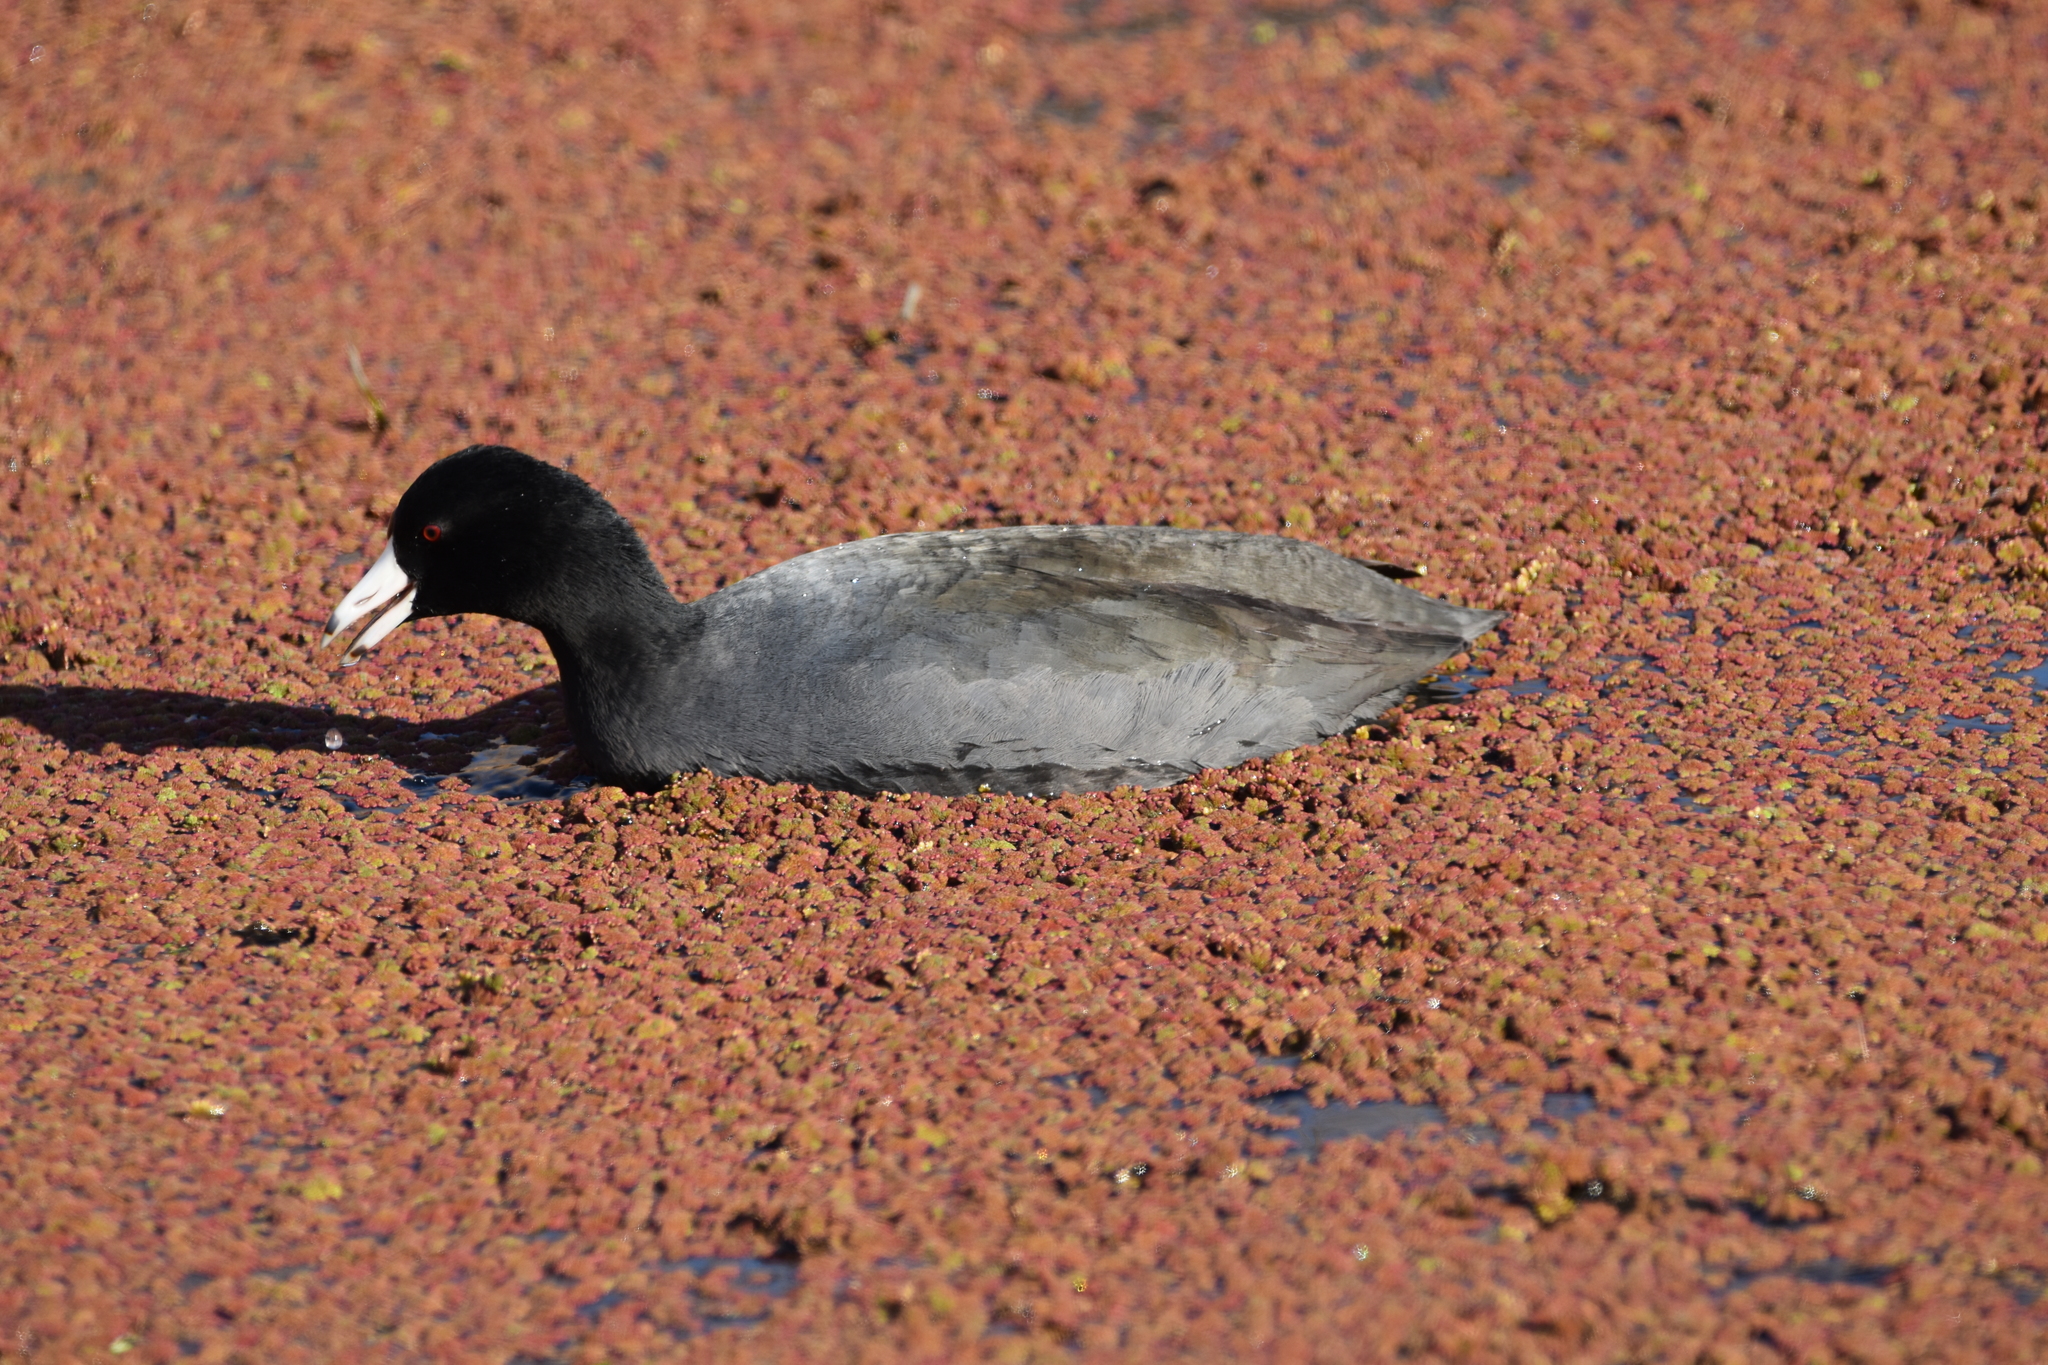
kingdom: Animalia
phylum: Chordata
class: Aves
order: Gruiformes
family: Rallidae
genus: Fulica
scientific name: Fulica americana
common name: American coot
